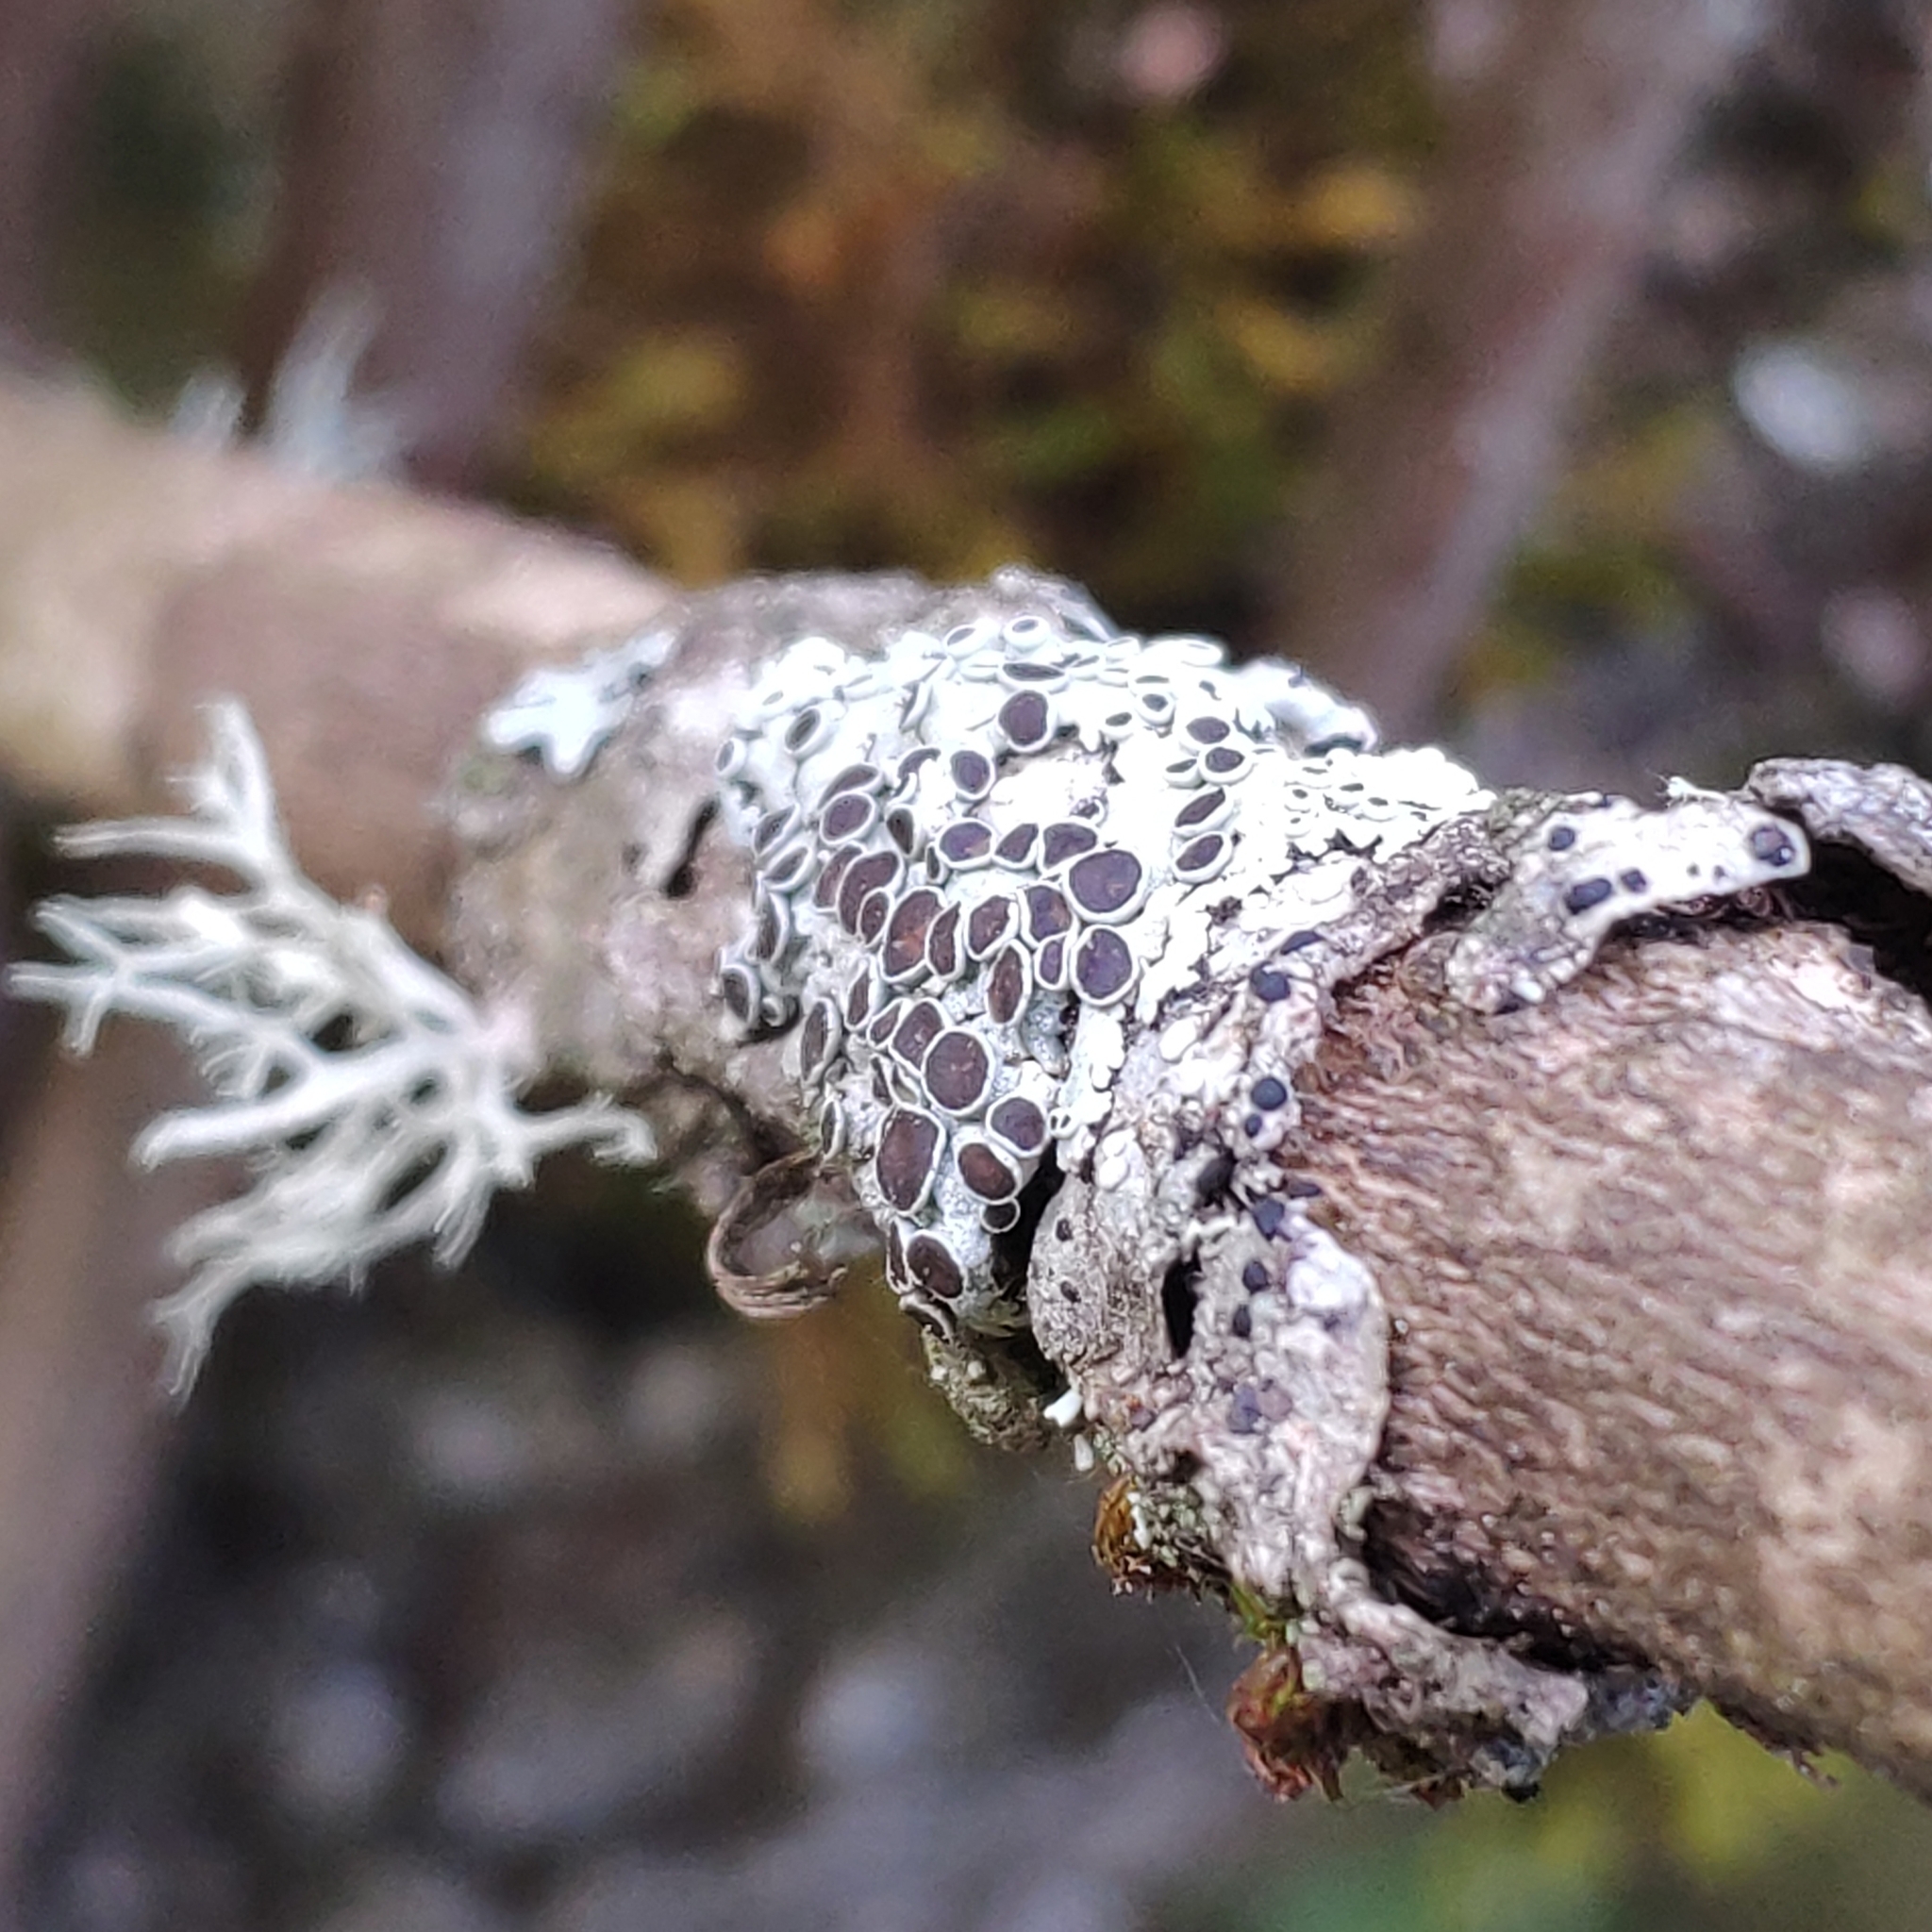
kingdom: Fungi
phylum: Ascomycota
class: Lecanoromycetes
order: Caliciales
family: Physciaceae
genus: Physcia
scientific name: Physcia aipolia
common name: Hoary rosette lichen
